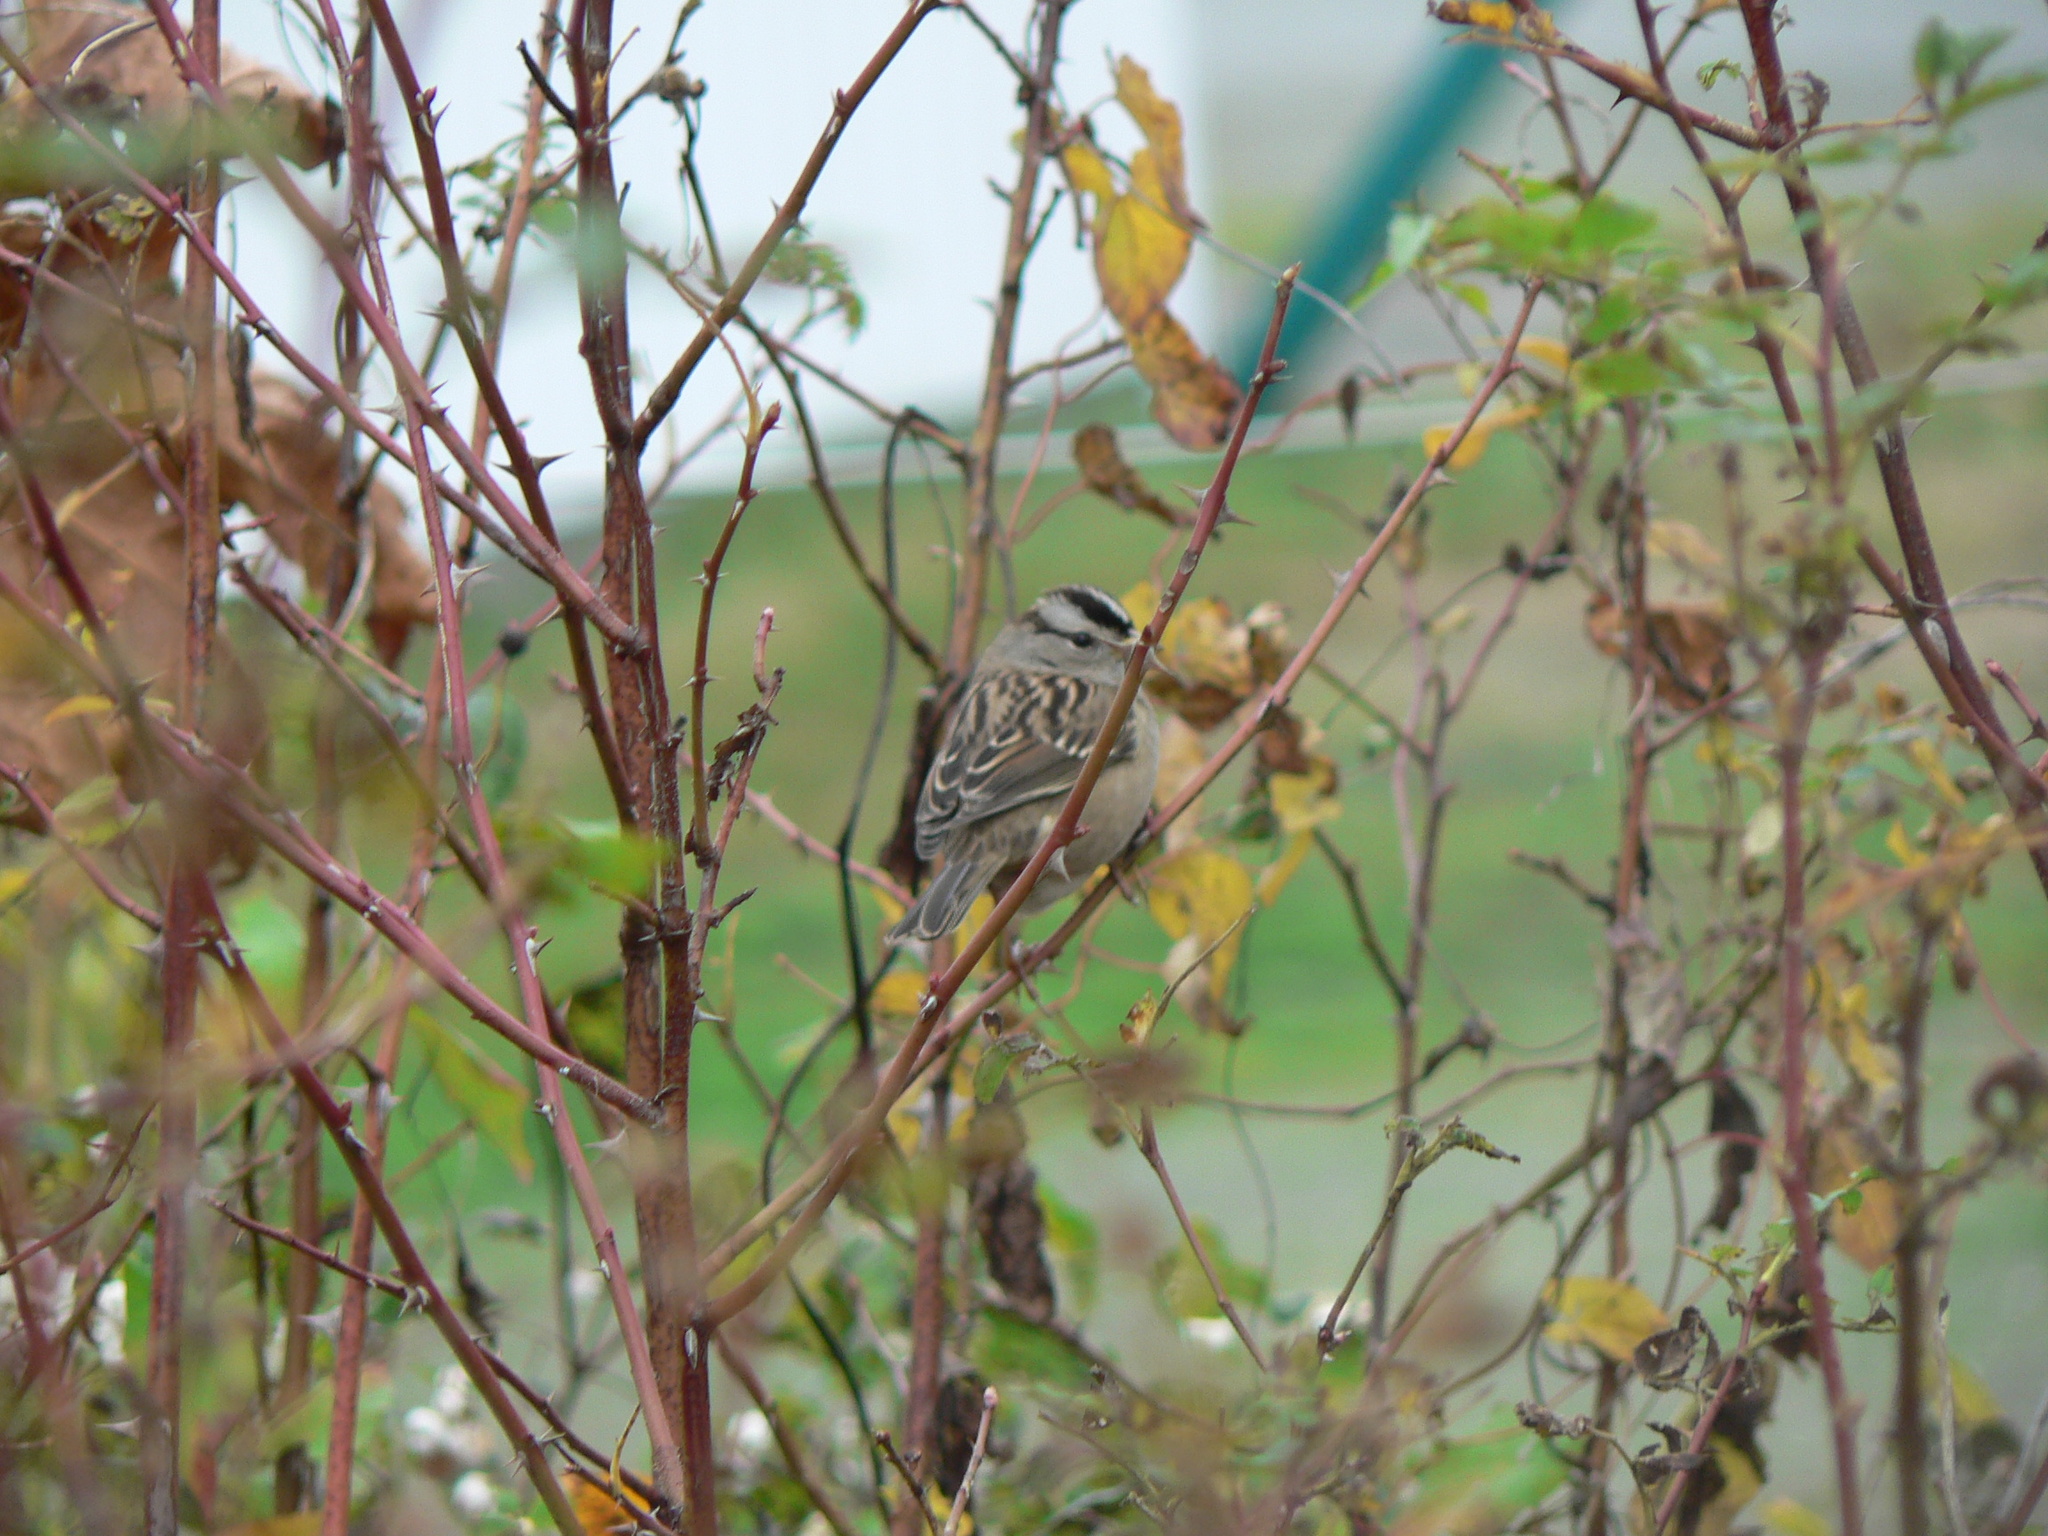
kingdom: Animalia
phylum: Chordata
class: Aves
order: Passeriformes
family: Passerellidae
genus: Zonotrichia
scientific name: Zonotrichia leucophrys
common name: White-crowned sparrow
